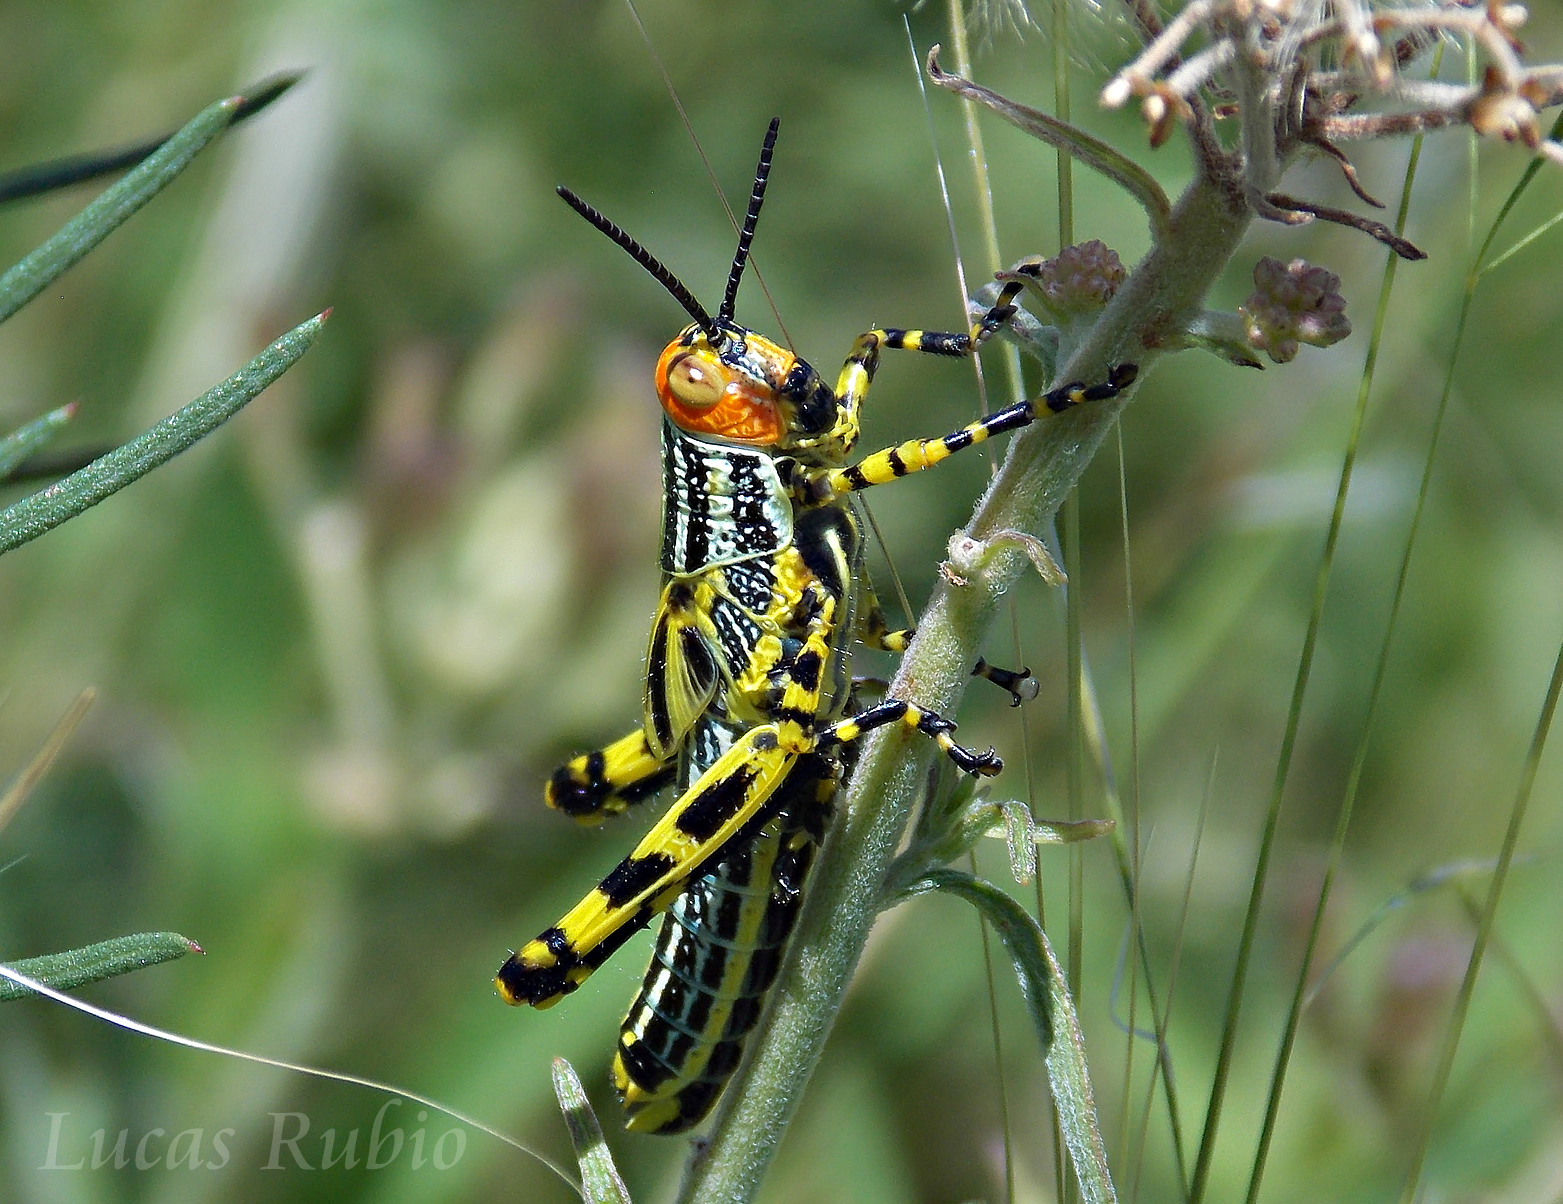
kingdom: Animalia
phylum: Arthropoda
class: Insecta
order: Orthoptera
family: Romaleidae
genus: Zoniopoda
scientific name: Zoniopoda tarsata
